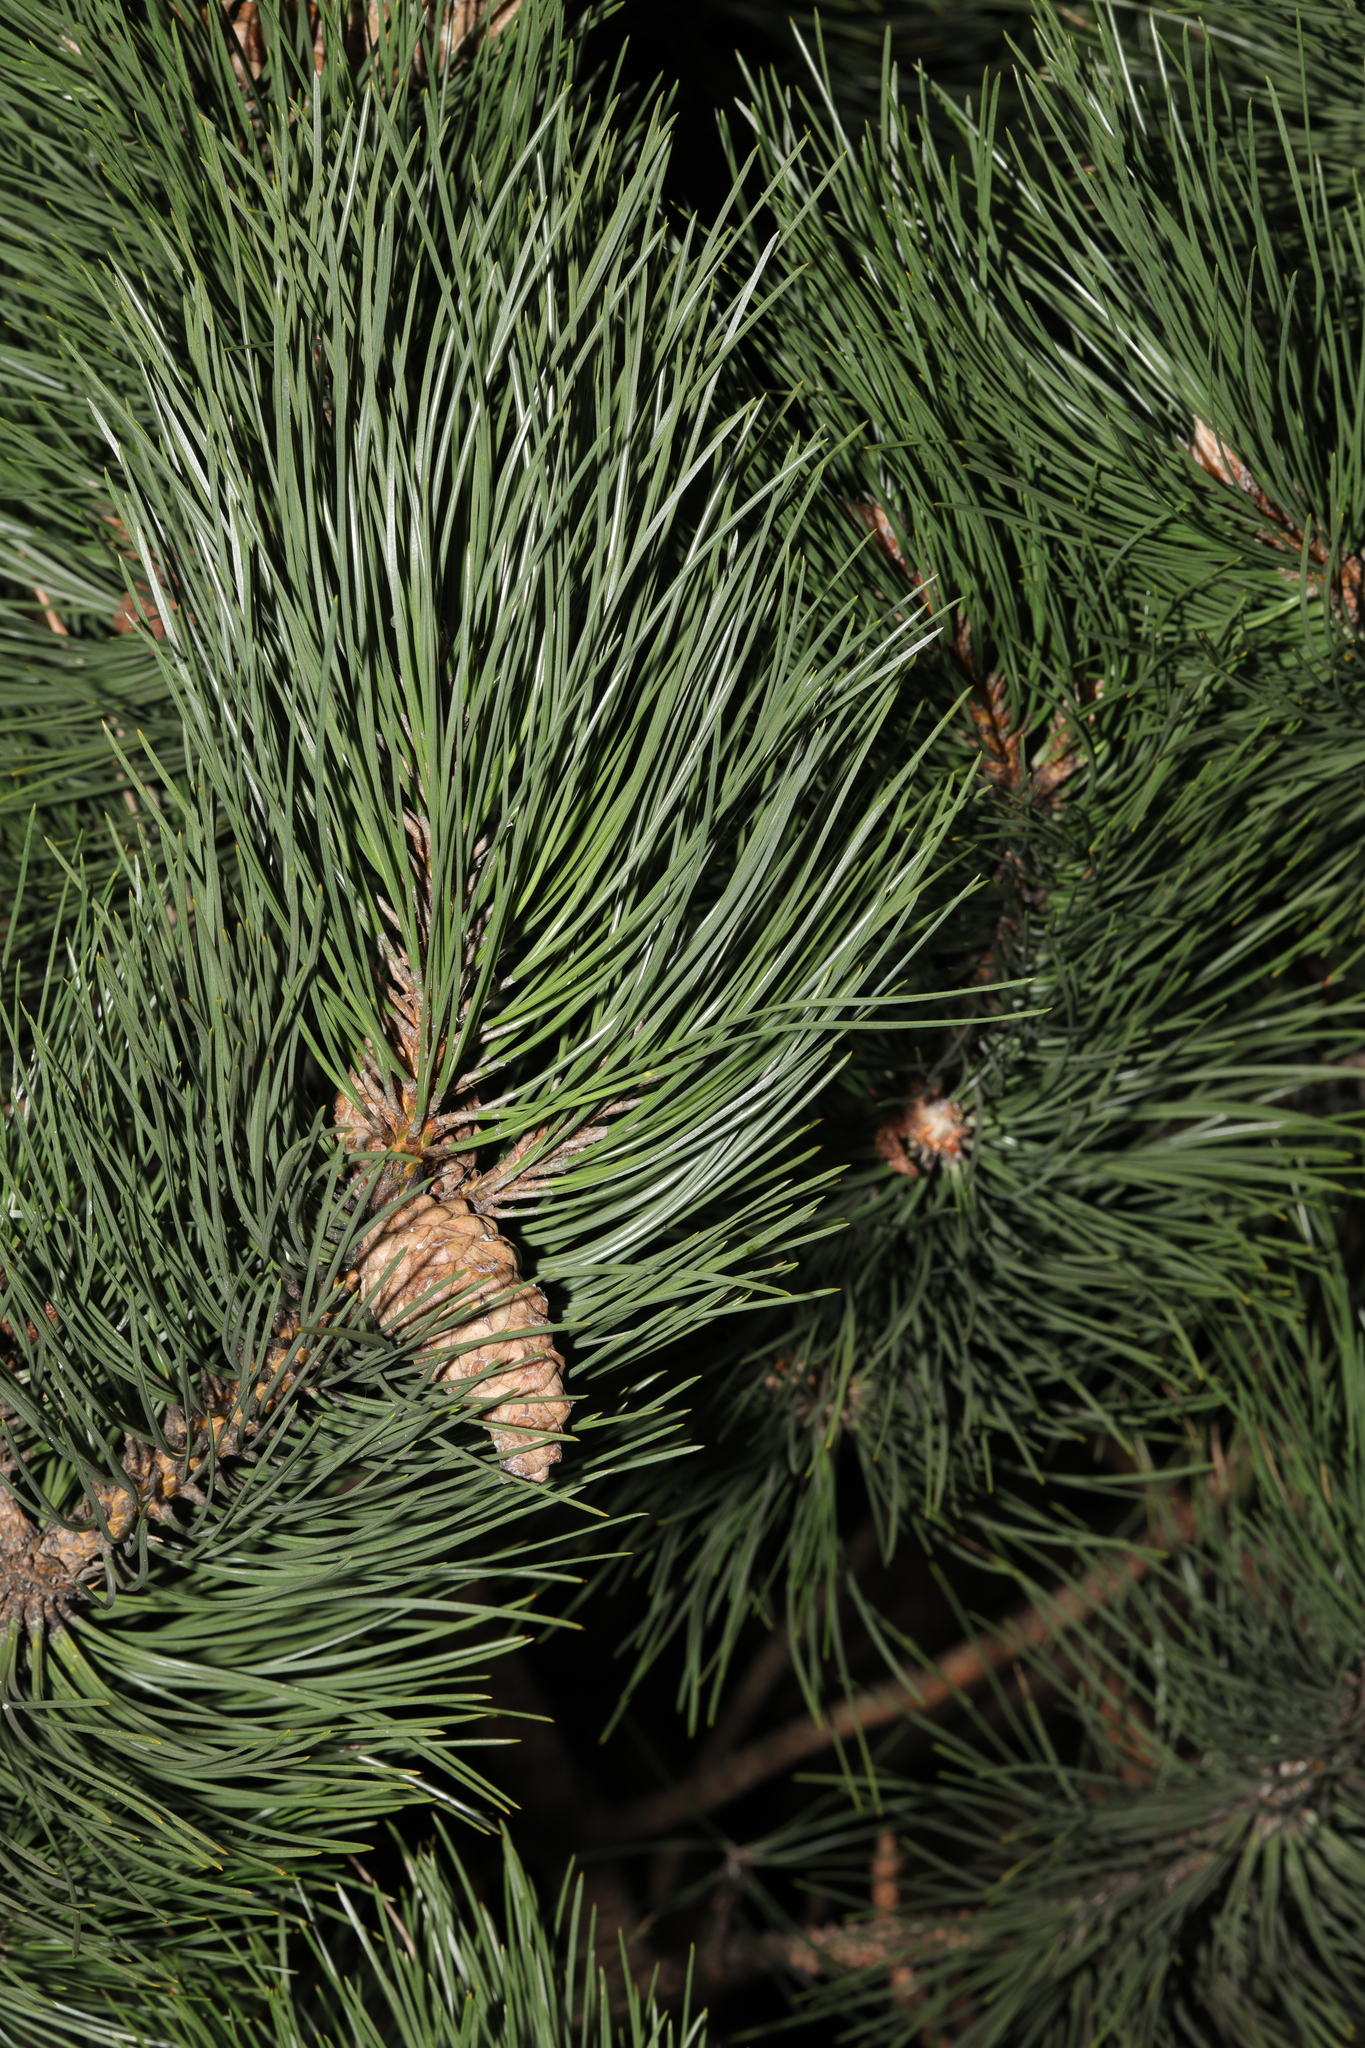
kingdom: Plantae
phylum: Tracheophyta
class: Pinopsida
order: Pinales
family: Pinaceae
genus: Pinus
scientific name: Pinus nigra
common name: Austrian pine
